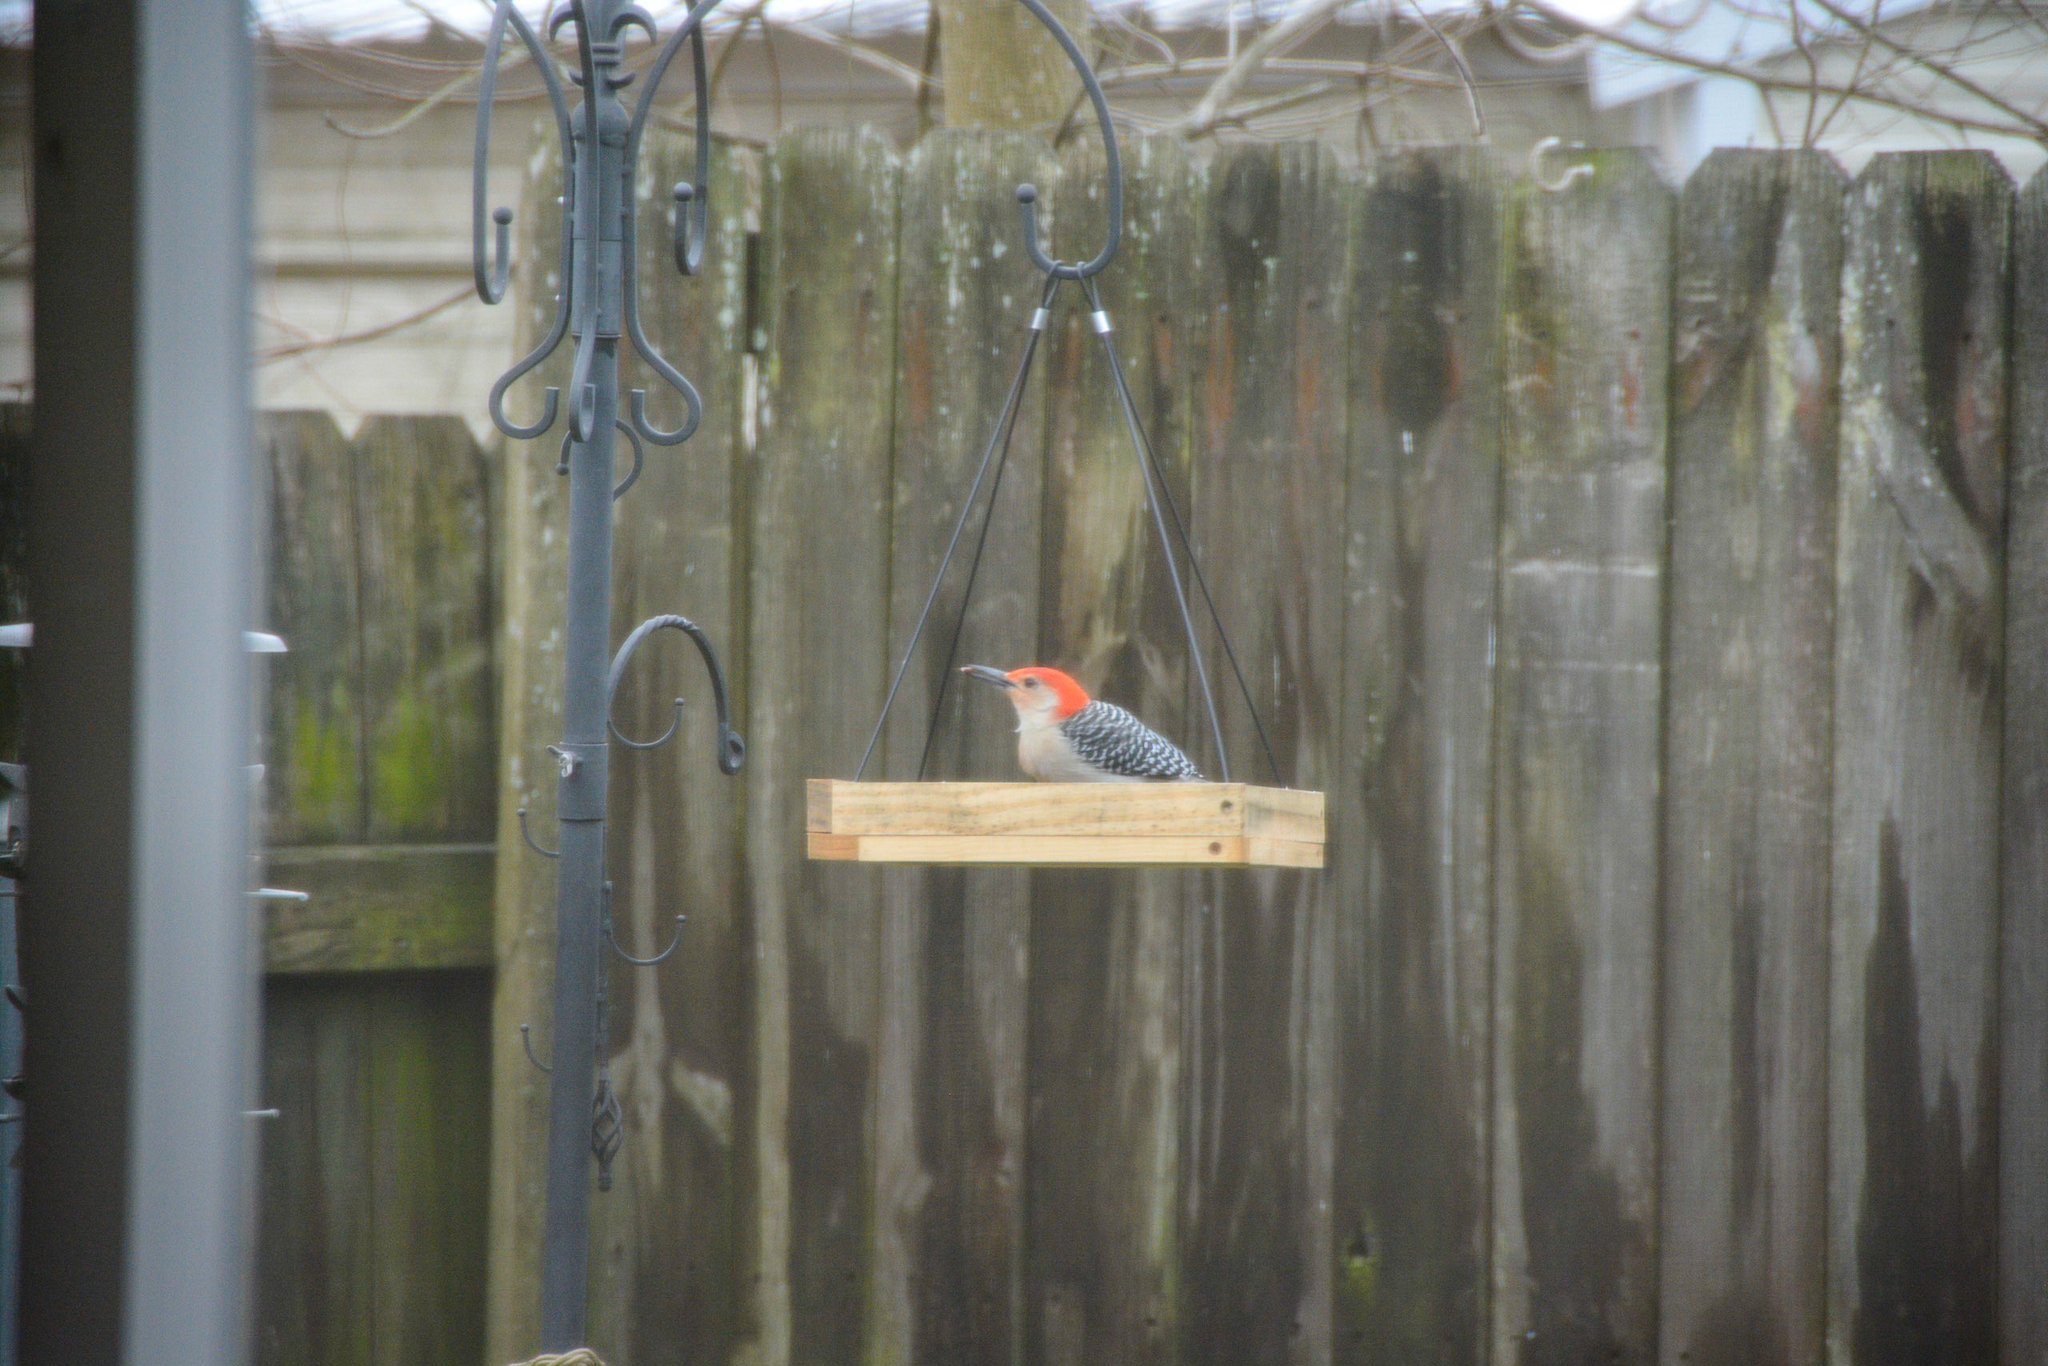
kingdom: Animalia
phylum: Chordata
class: Aves
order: Piciformes
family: Picidae
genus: Melanerpes
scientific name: Melanerpes carolinus
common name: Red-bellied woodpecker
